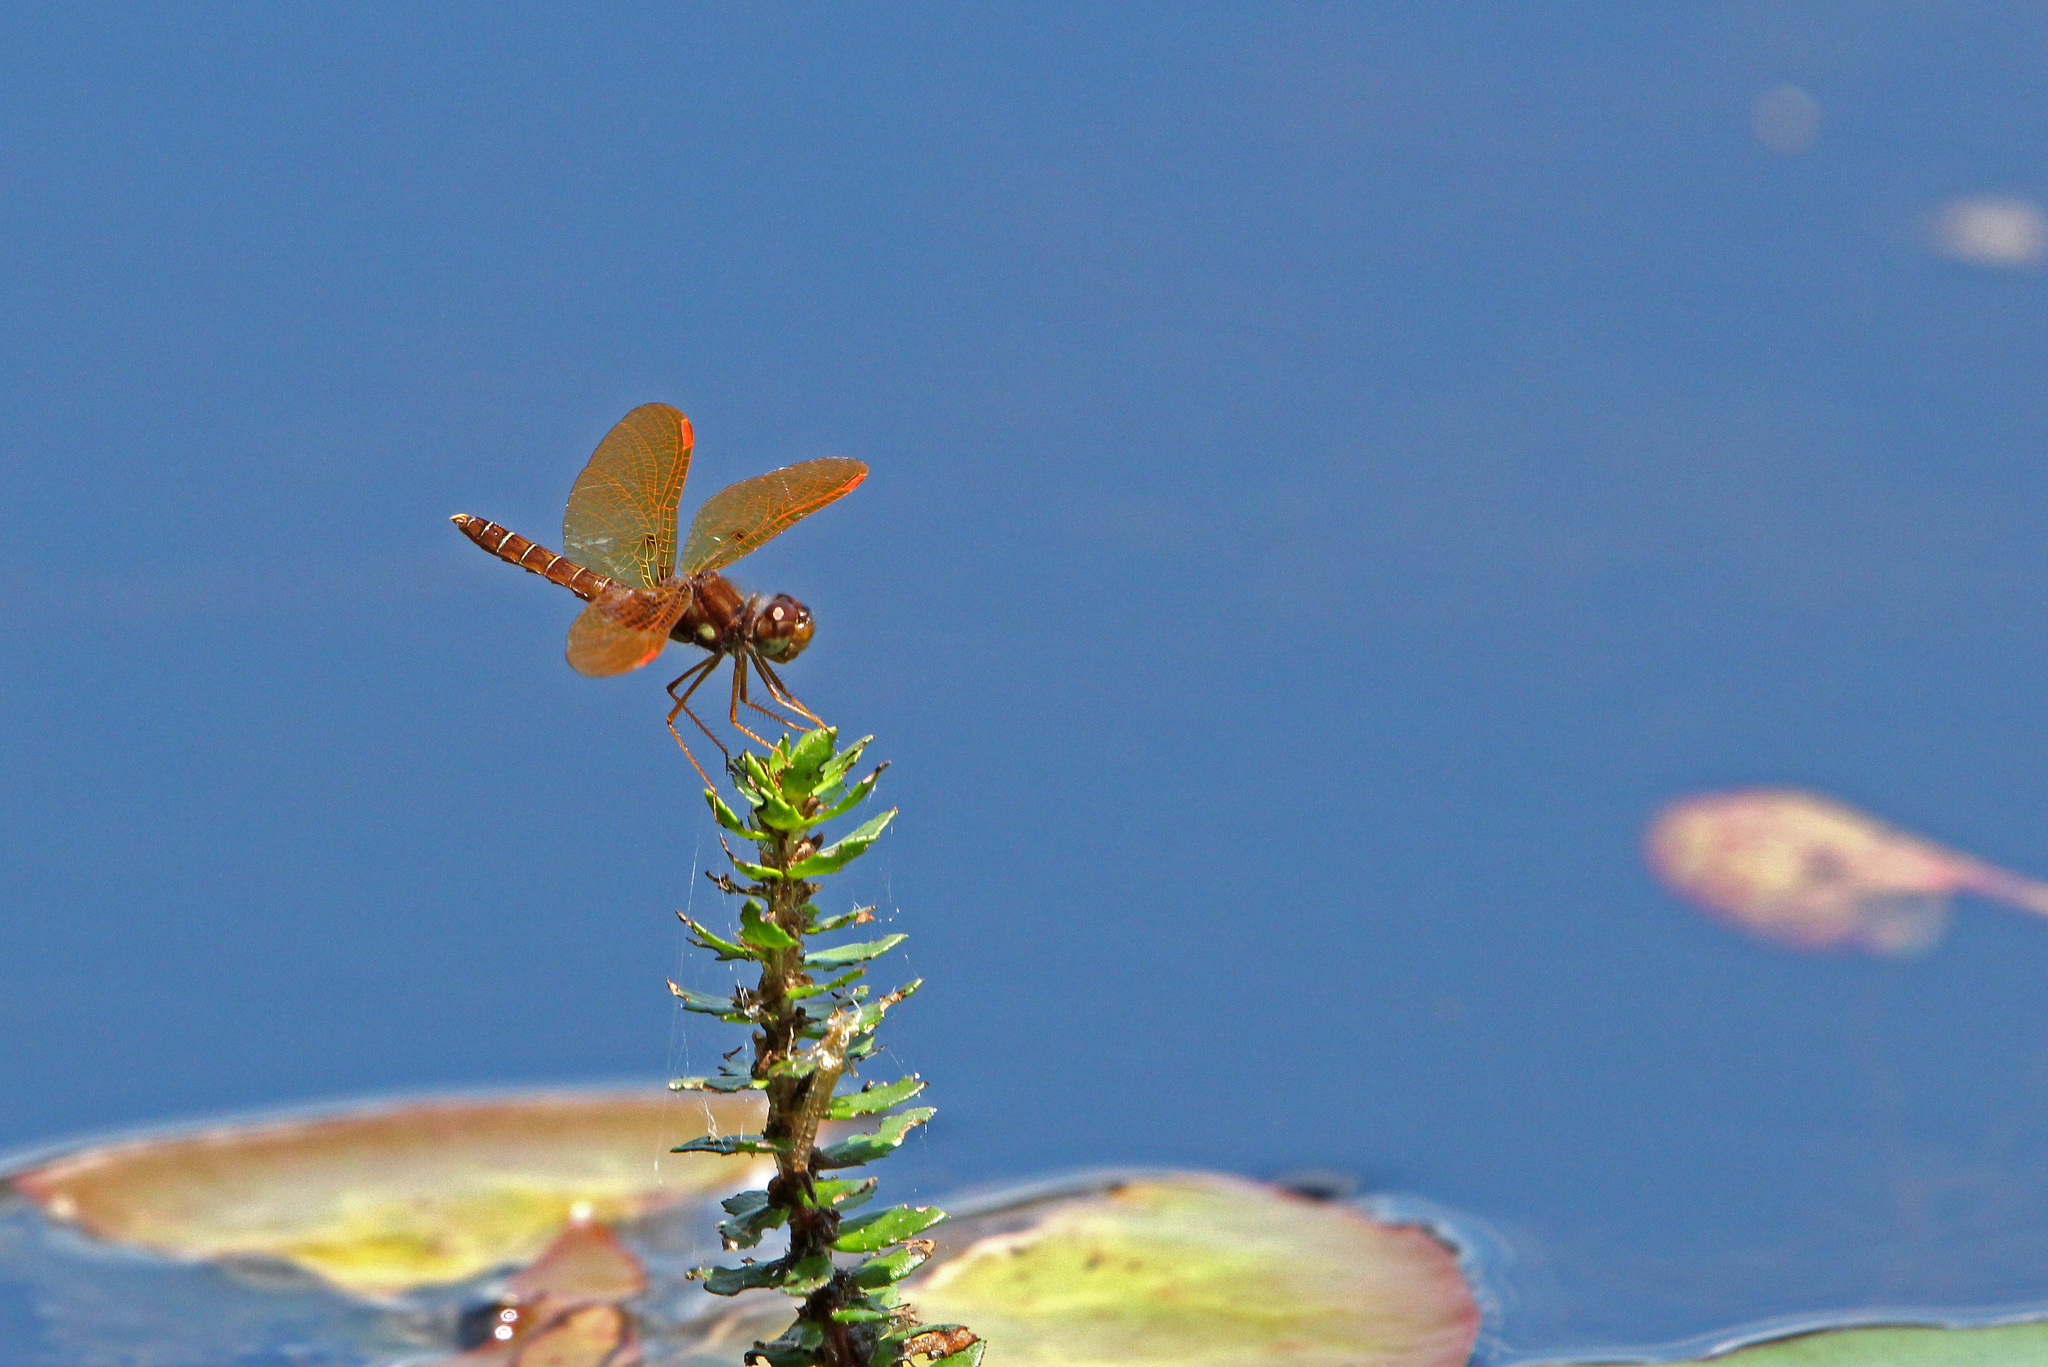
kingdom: Animalia
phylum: Arthropoda
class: Insecta
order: Odonata
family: Libellulidae
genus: Perithemis
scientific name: Perithemis tenera
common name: Eastern amberwing
